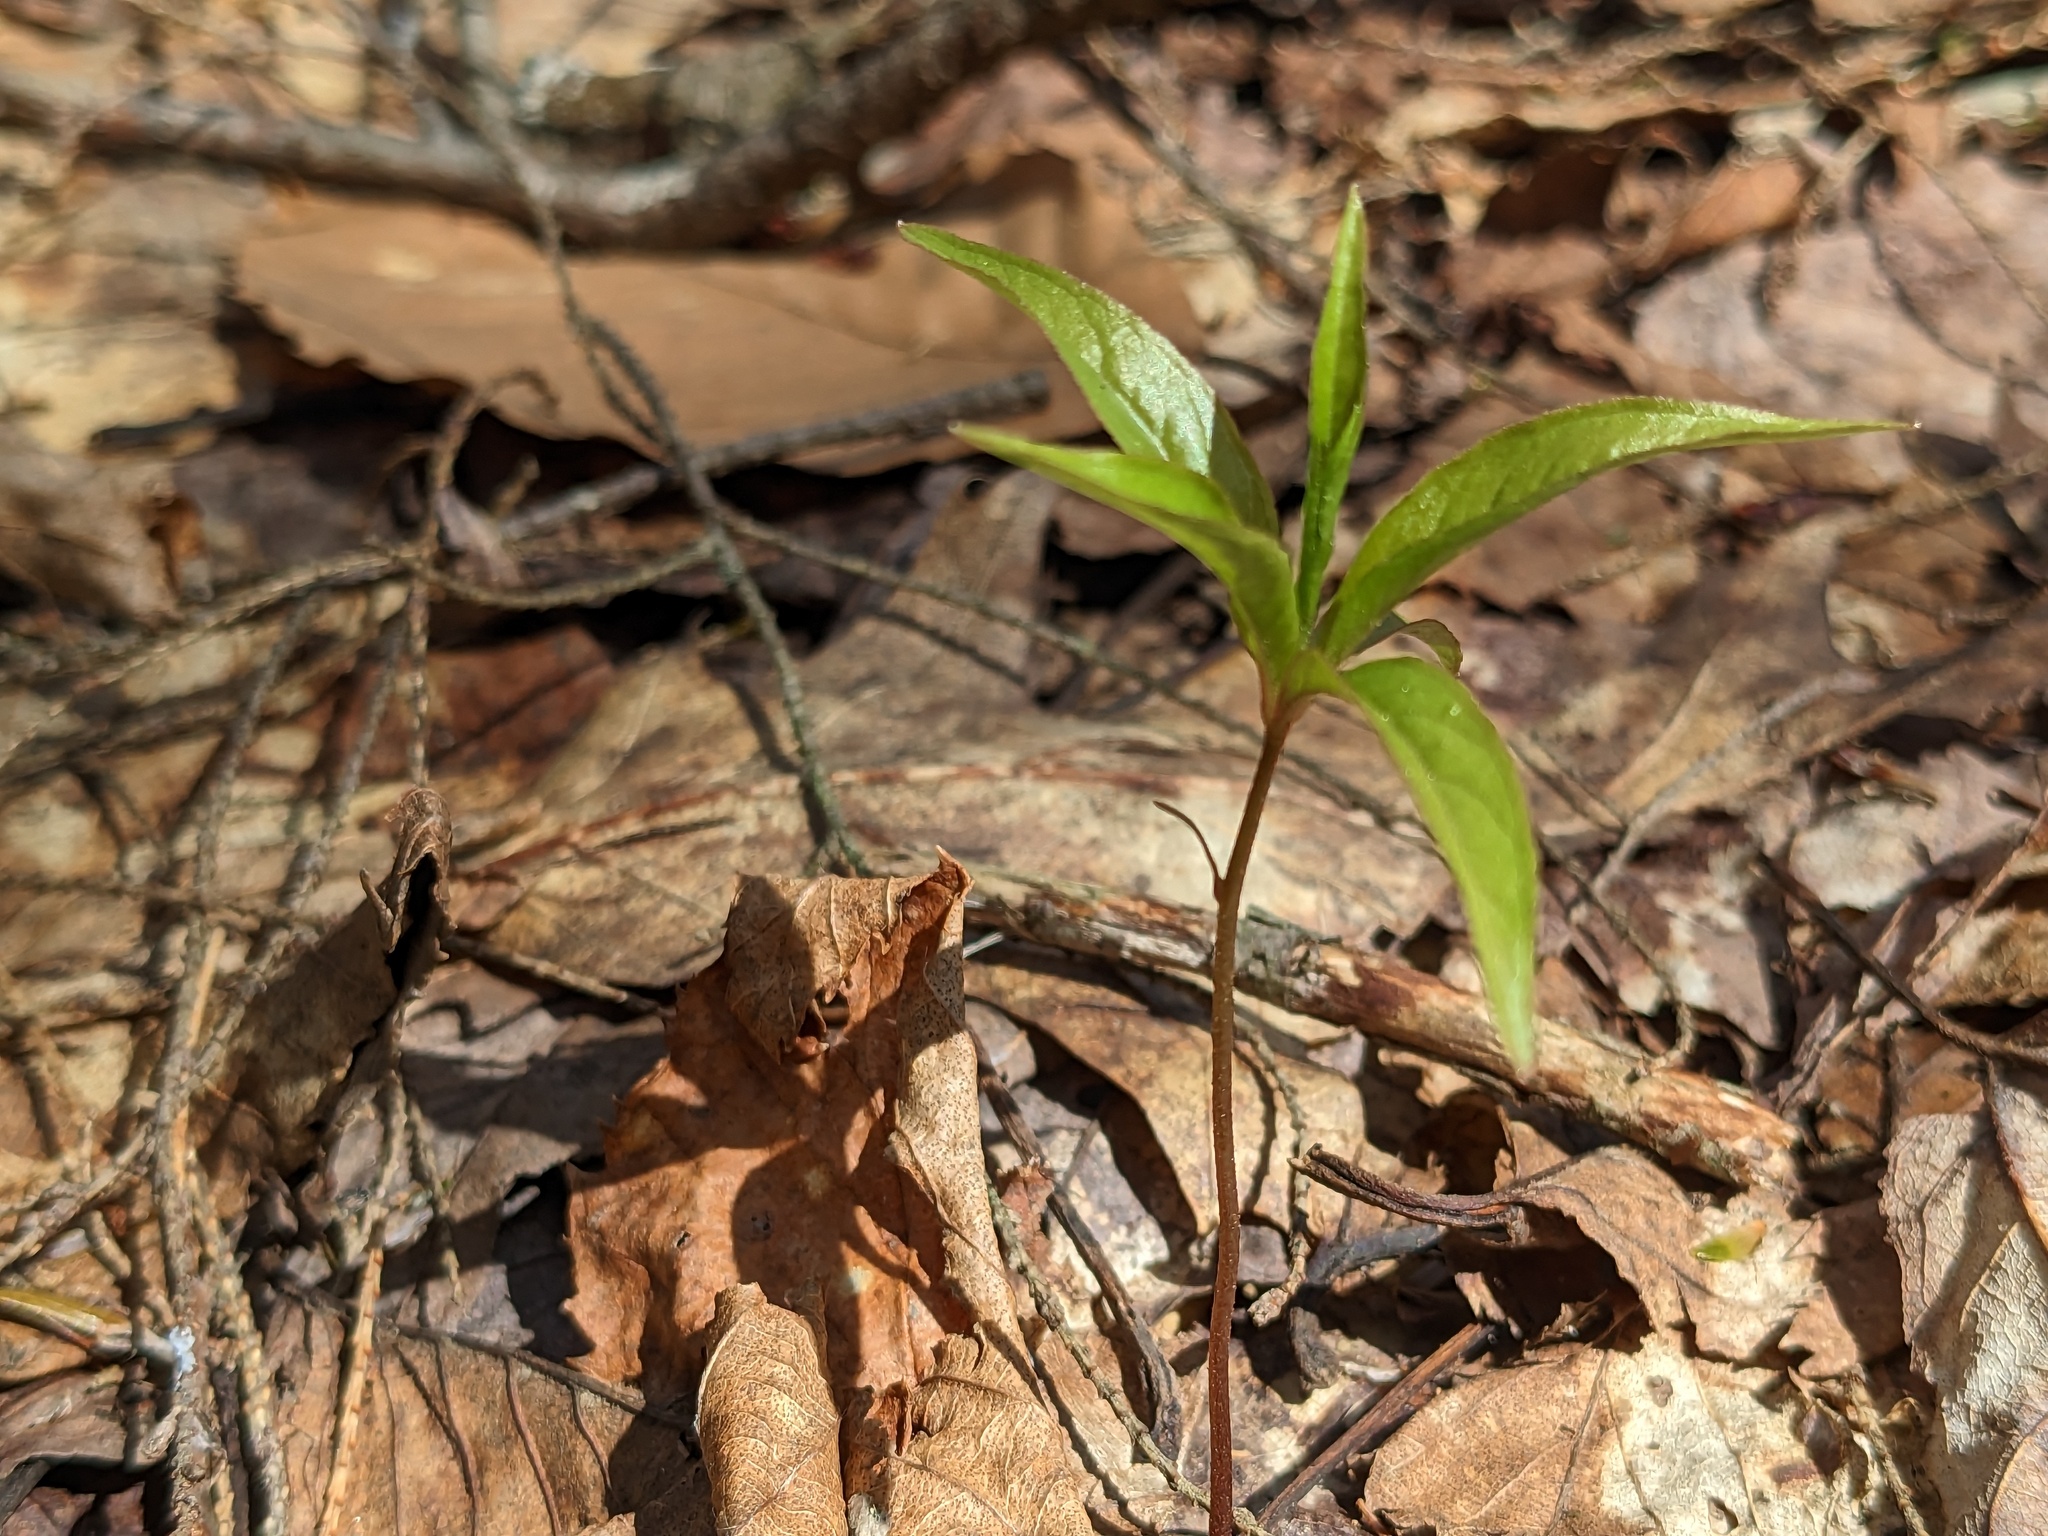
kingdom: Plantae
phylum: Tracheophyta
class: Magnoliopsida
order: Ericales
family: Primulaceae
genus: Lysimachia
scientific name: Lysimachia borealis
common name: American starflower
